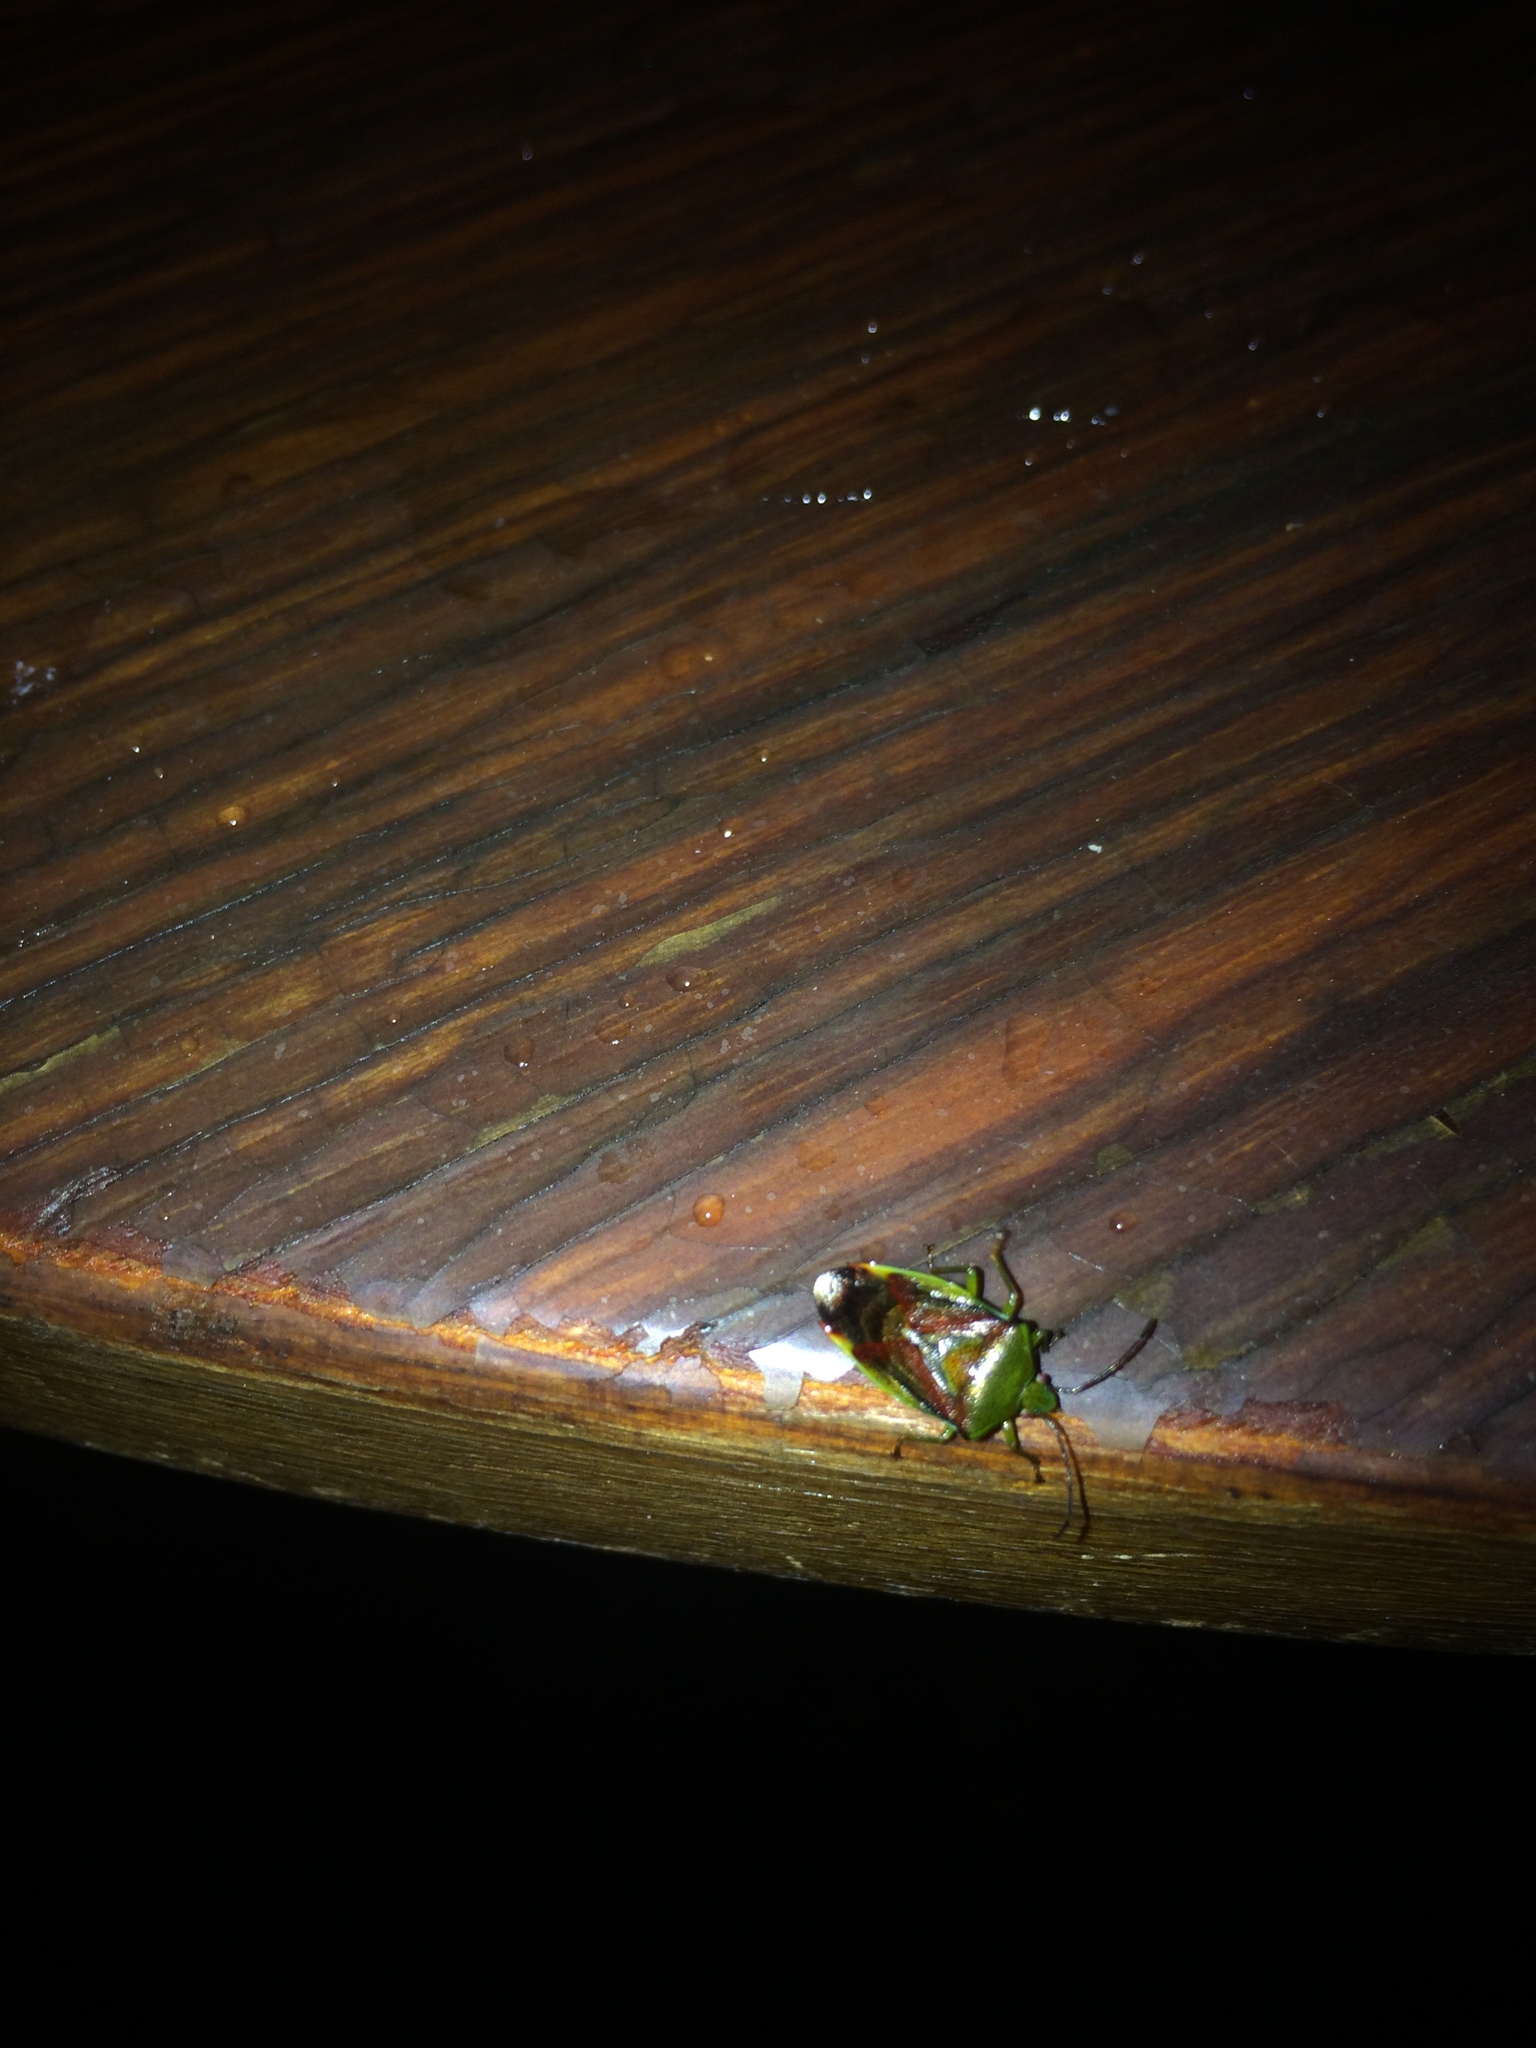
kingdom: Animalia
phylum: Arthropoda
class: Insecta
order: Hemiptera
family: Acanthosomatidae
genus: Elasmostethus
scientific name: Elasmostethus interstinctus
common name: Birch shieldbug
